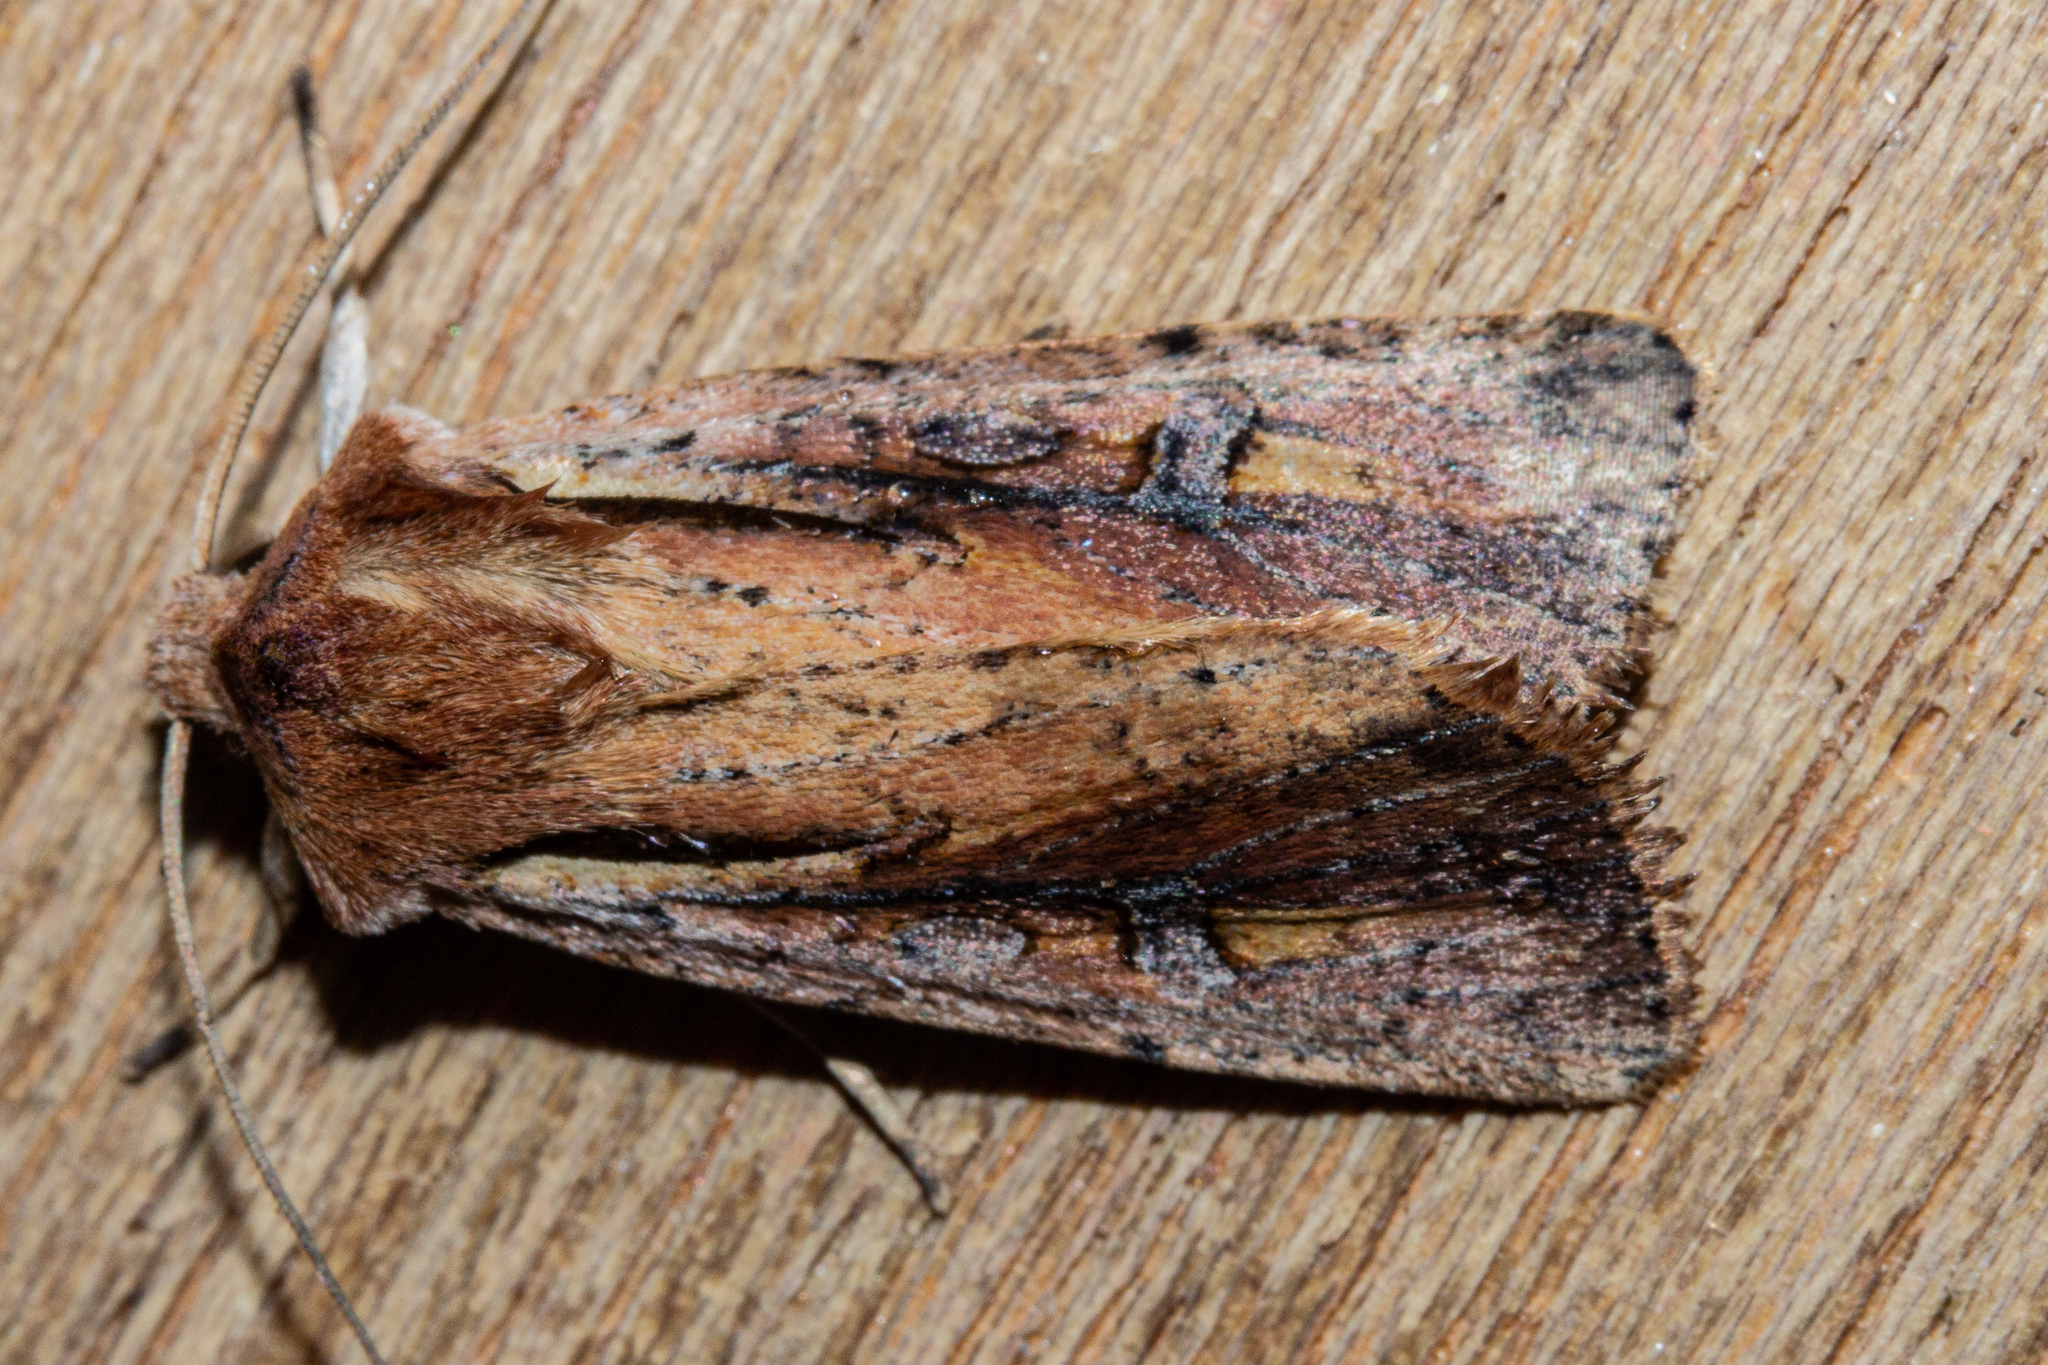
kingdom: Animalia
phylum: Arthropoda
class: Insecta
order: Lepidoptera
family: Noctuidae
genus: Ichneutica
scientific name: Ichneutica atristriga
